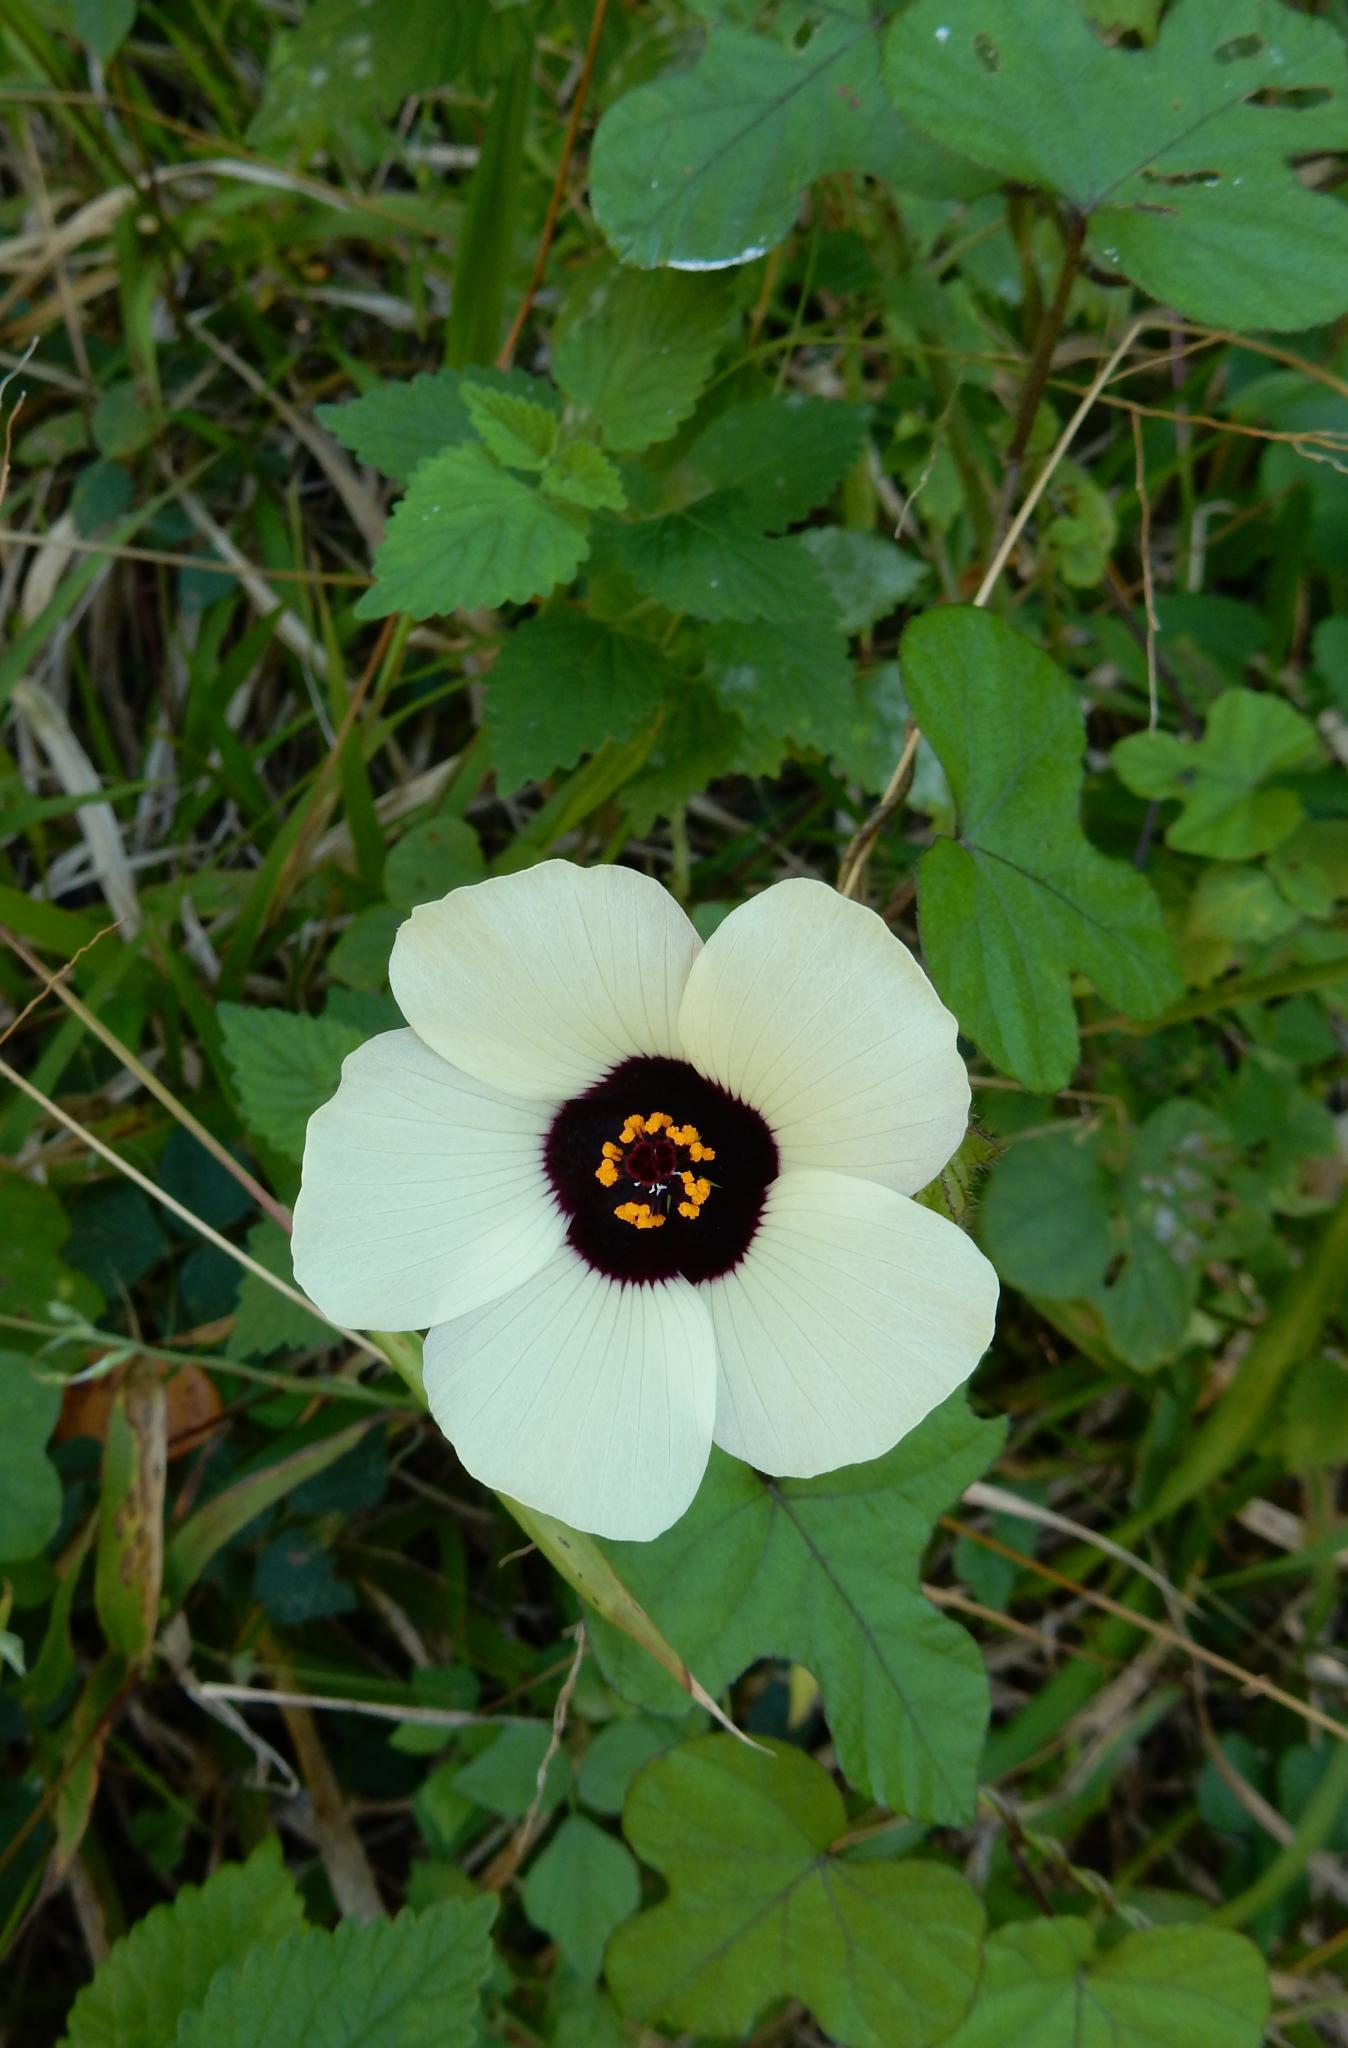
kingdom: Plantae
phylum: Tracheophyta
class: Magnoliopsida
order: Malvales
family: Malvaceae
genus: Hibiscus
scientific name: Hibiscus trionum
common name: Bladder ketmia
